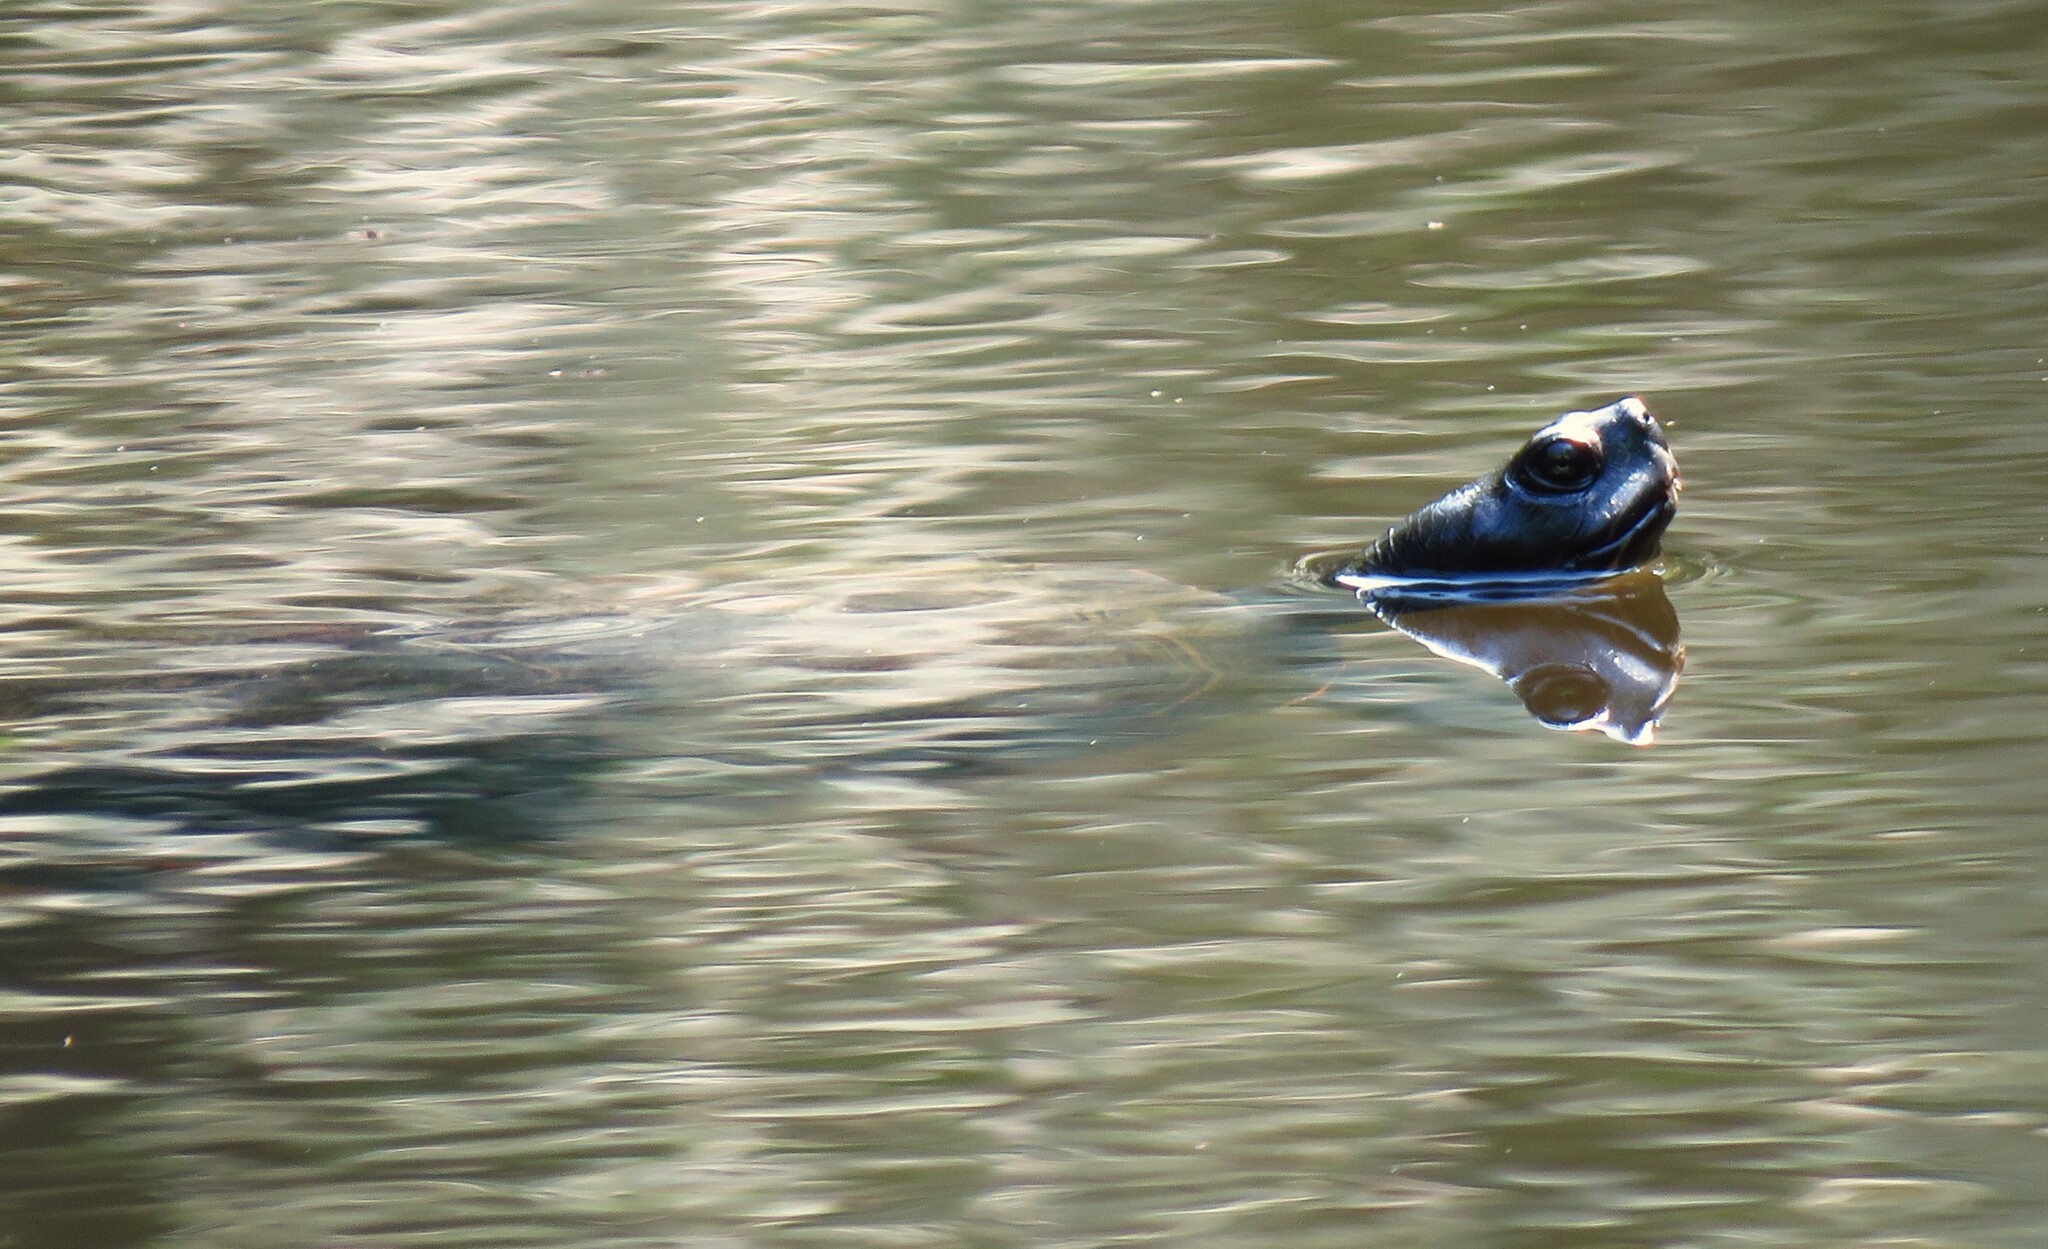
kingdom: Animalia
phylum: Chordata
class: Testudines
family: Emydidae
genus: Pseudemys
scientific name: Pseudemys rubriventris
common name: American red-bellied turtle
